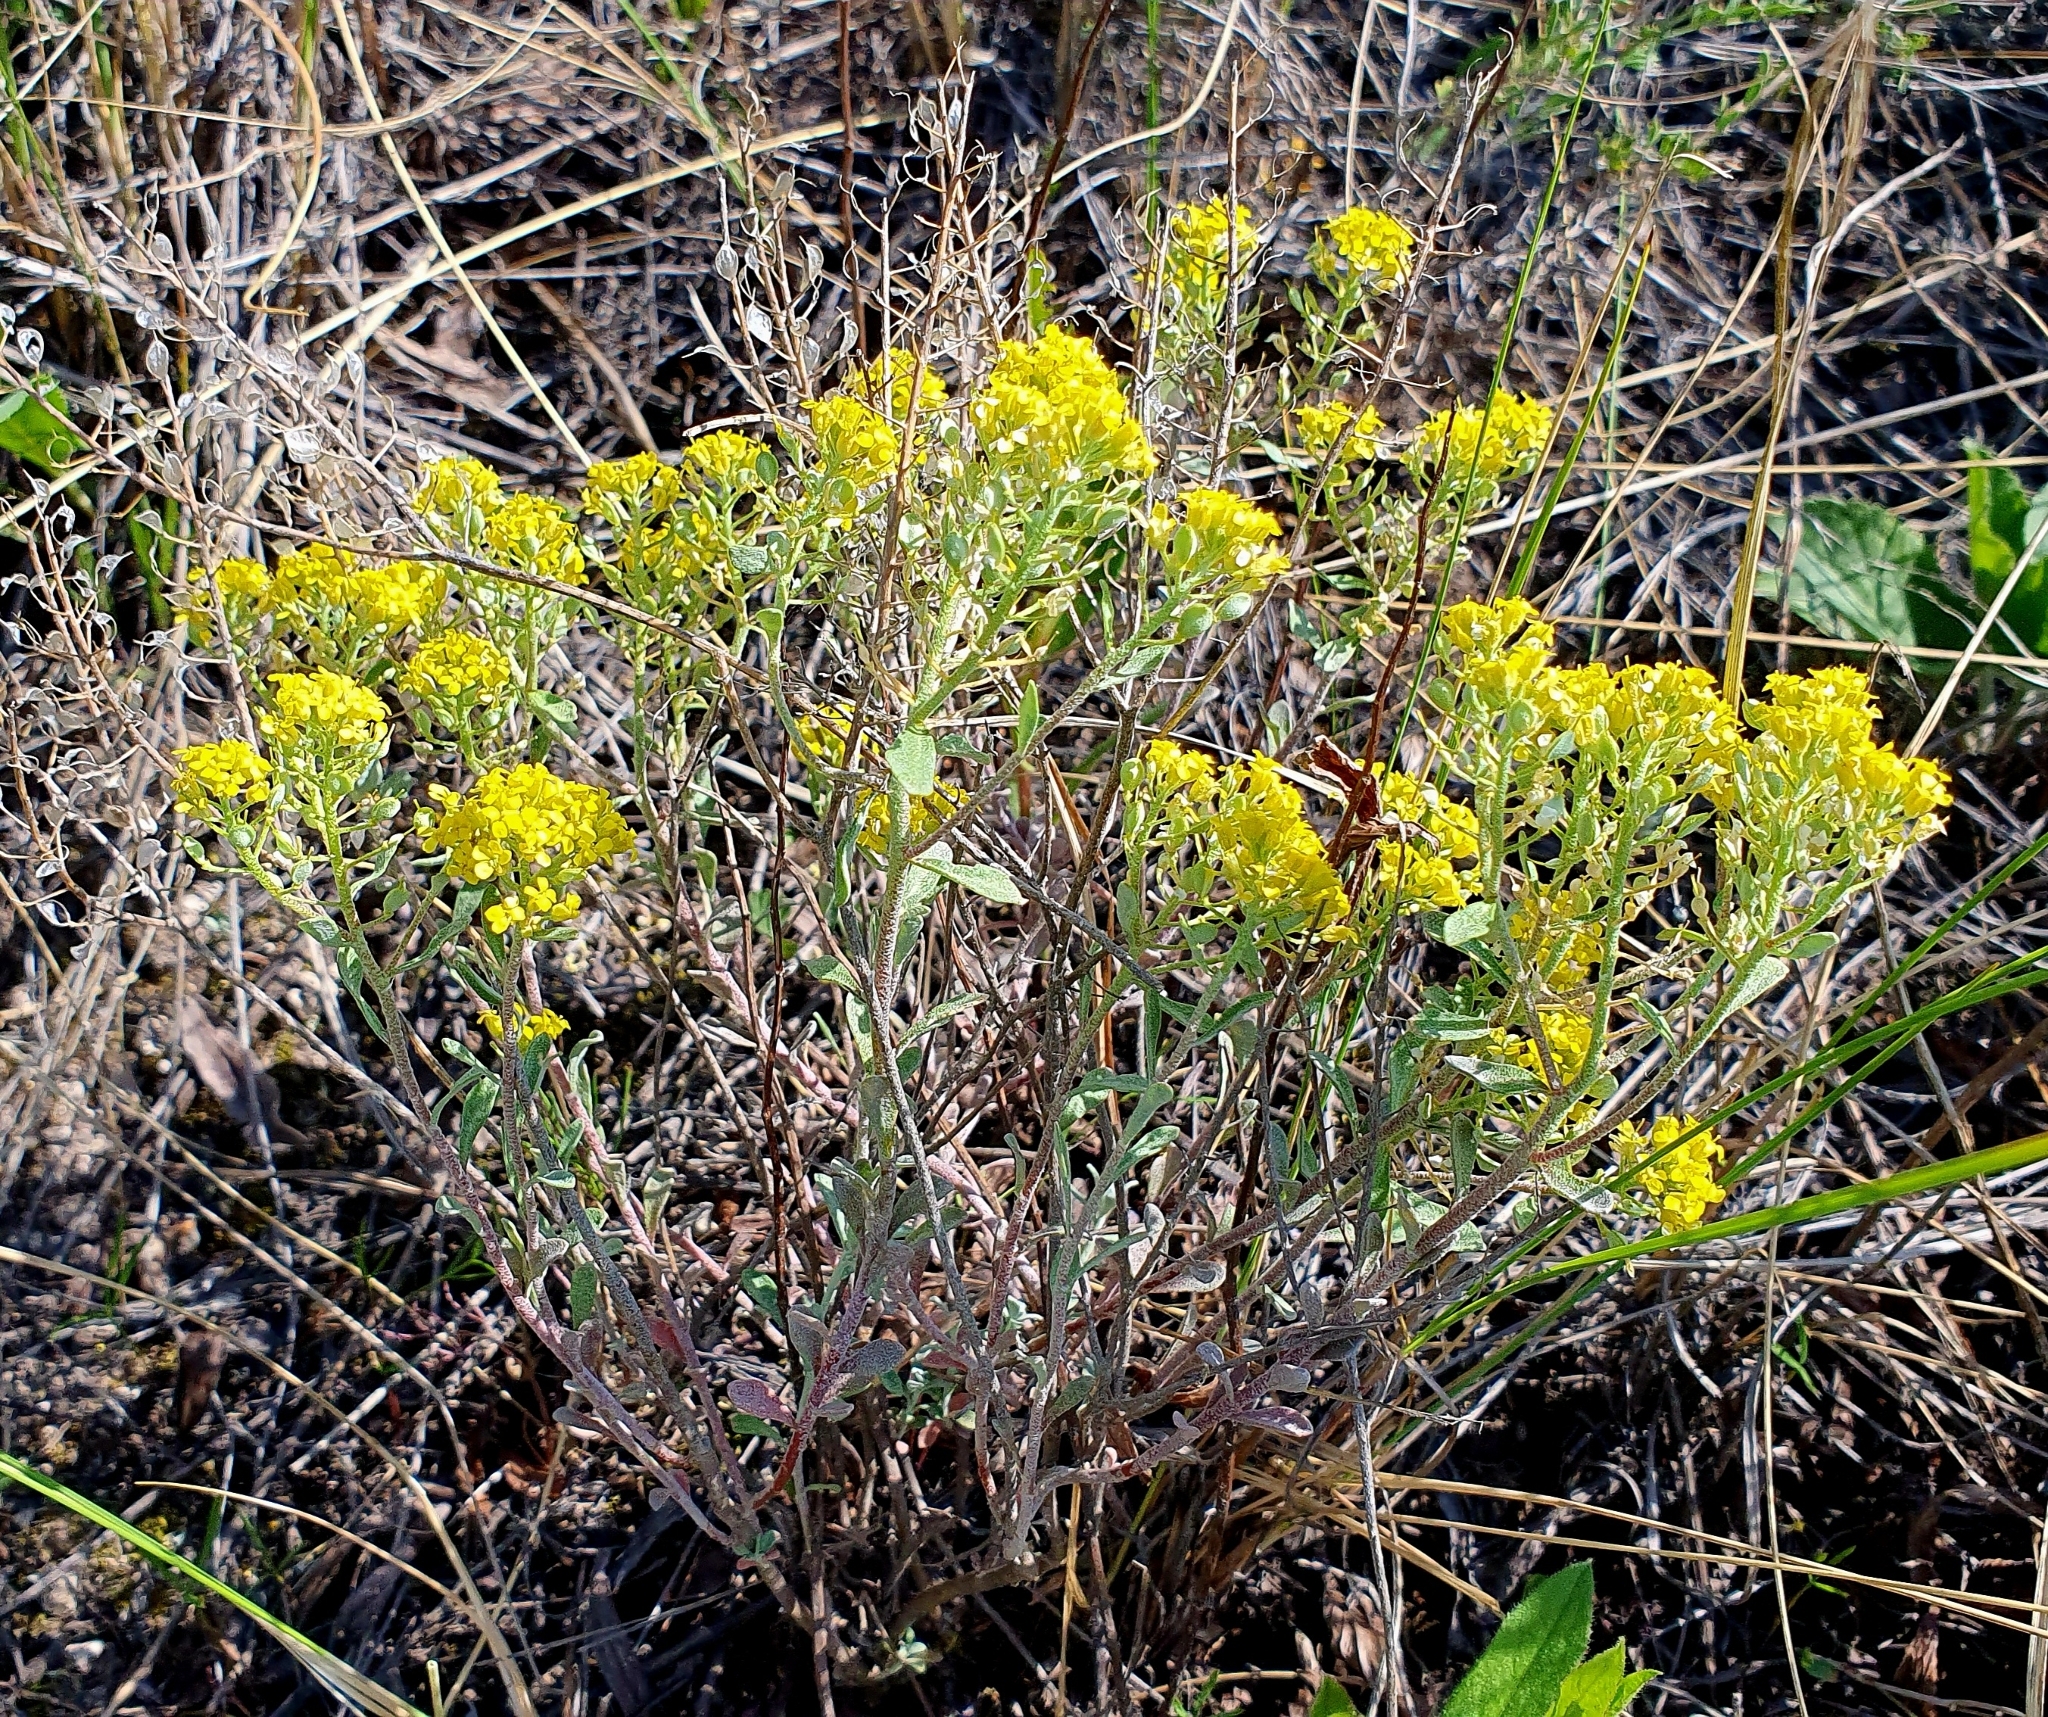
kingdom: Plantae
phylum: Tracheophyta
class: Magnoliopsida
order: Brassicales
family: Brassicaceae
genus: Odontarrhena
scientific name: Odontarrhena tortuosa
